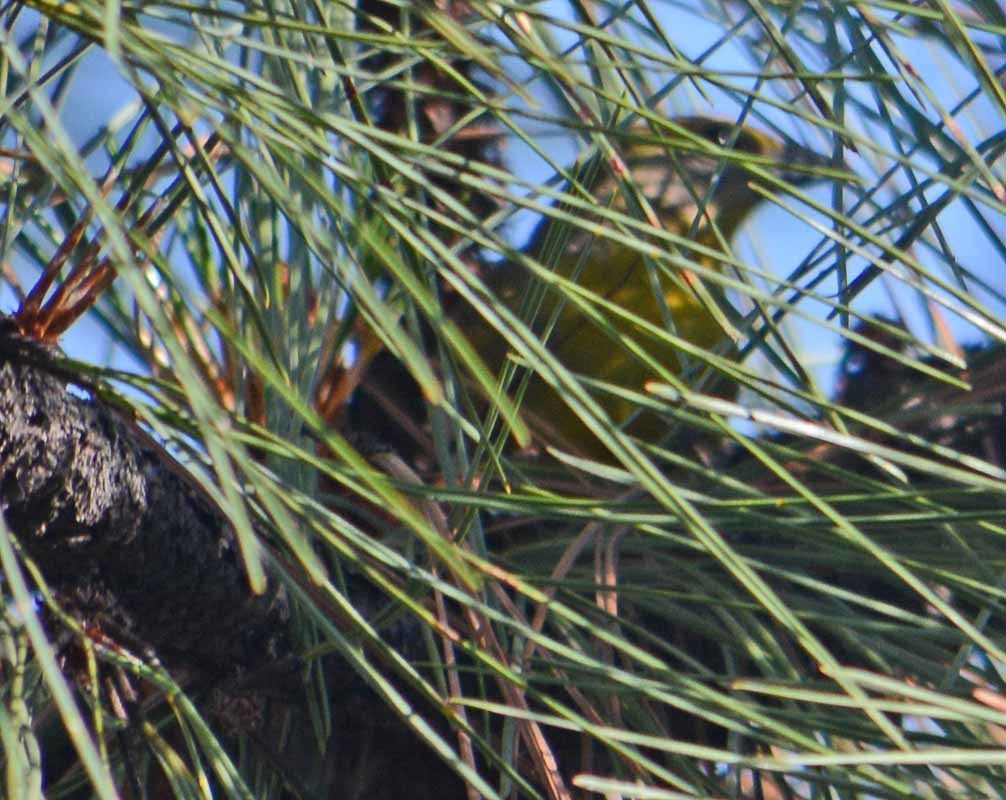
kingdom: Animalia
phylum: Chordata
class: Aves
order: Passeriformes
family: Cardinalidae
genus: Piranga
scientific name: Piranga flava
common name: Red tanager
